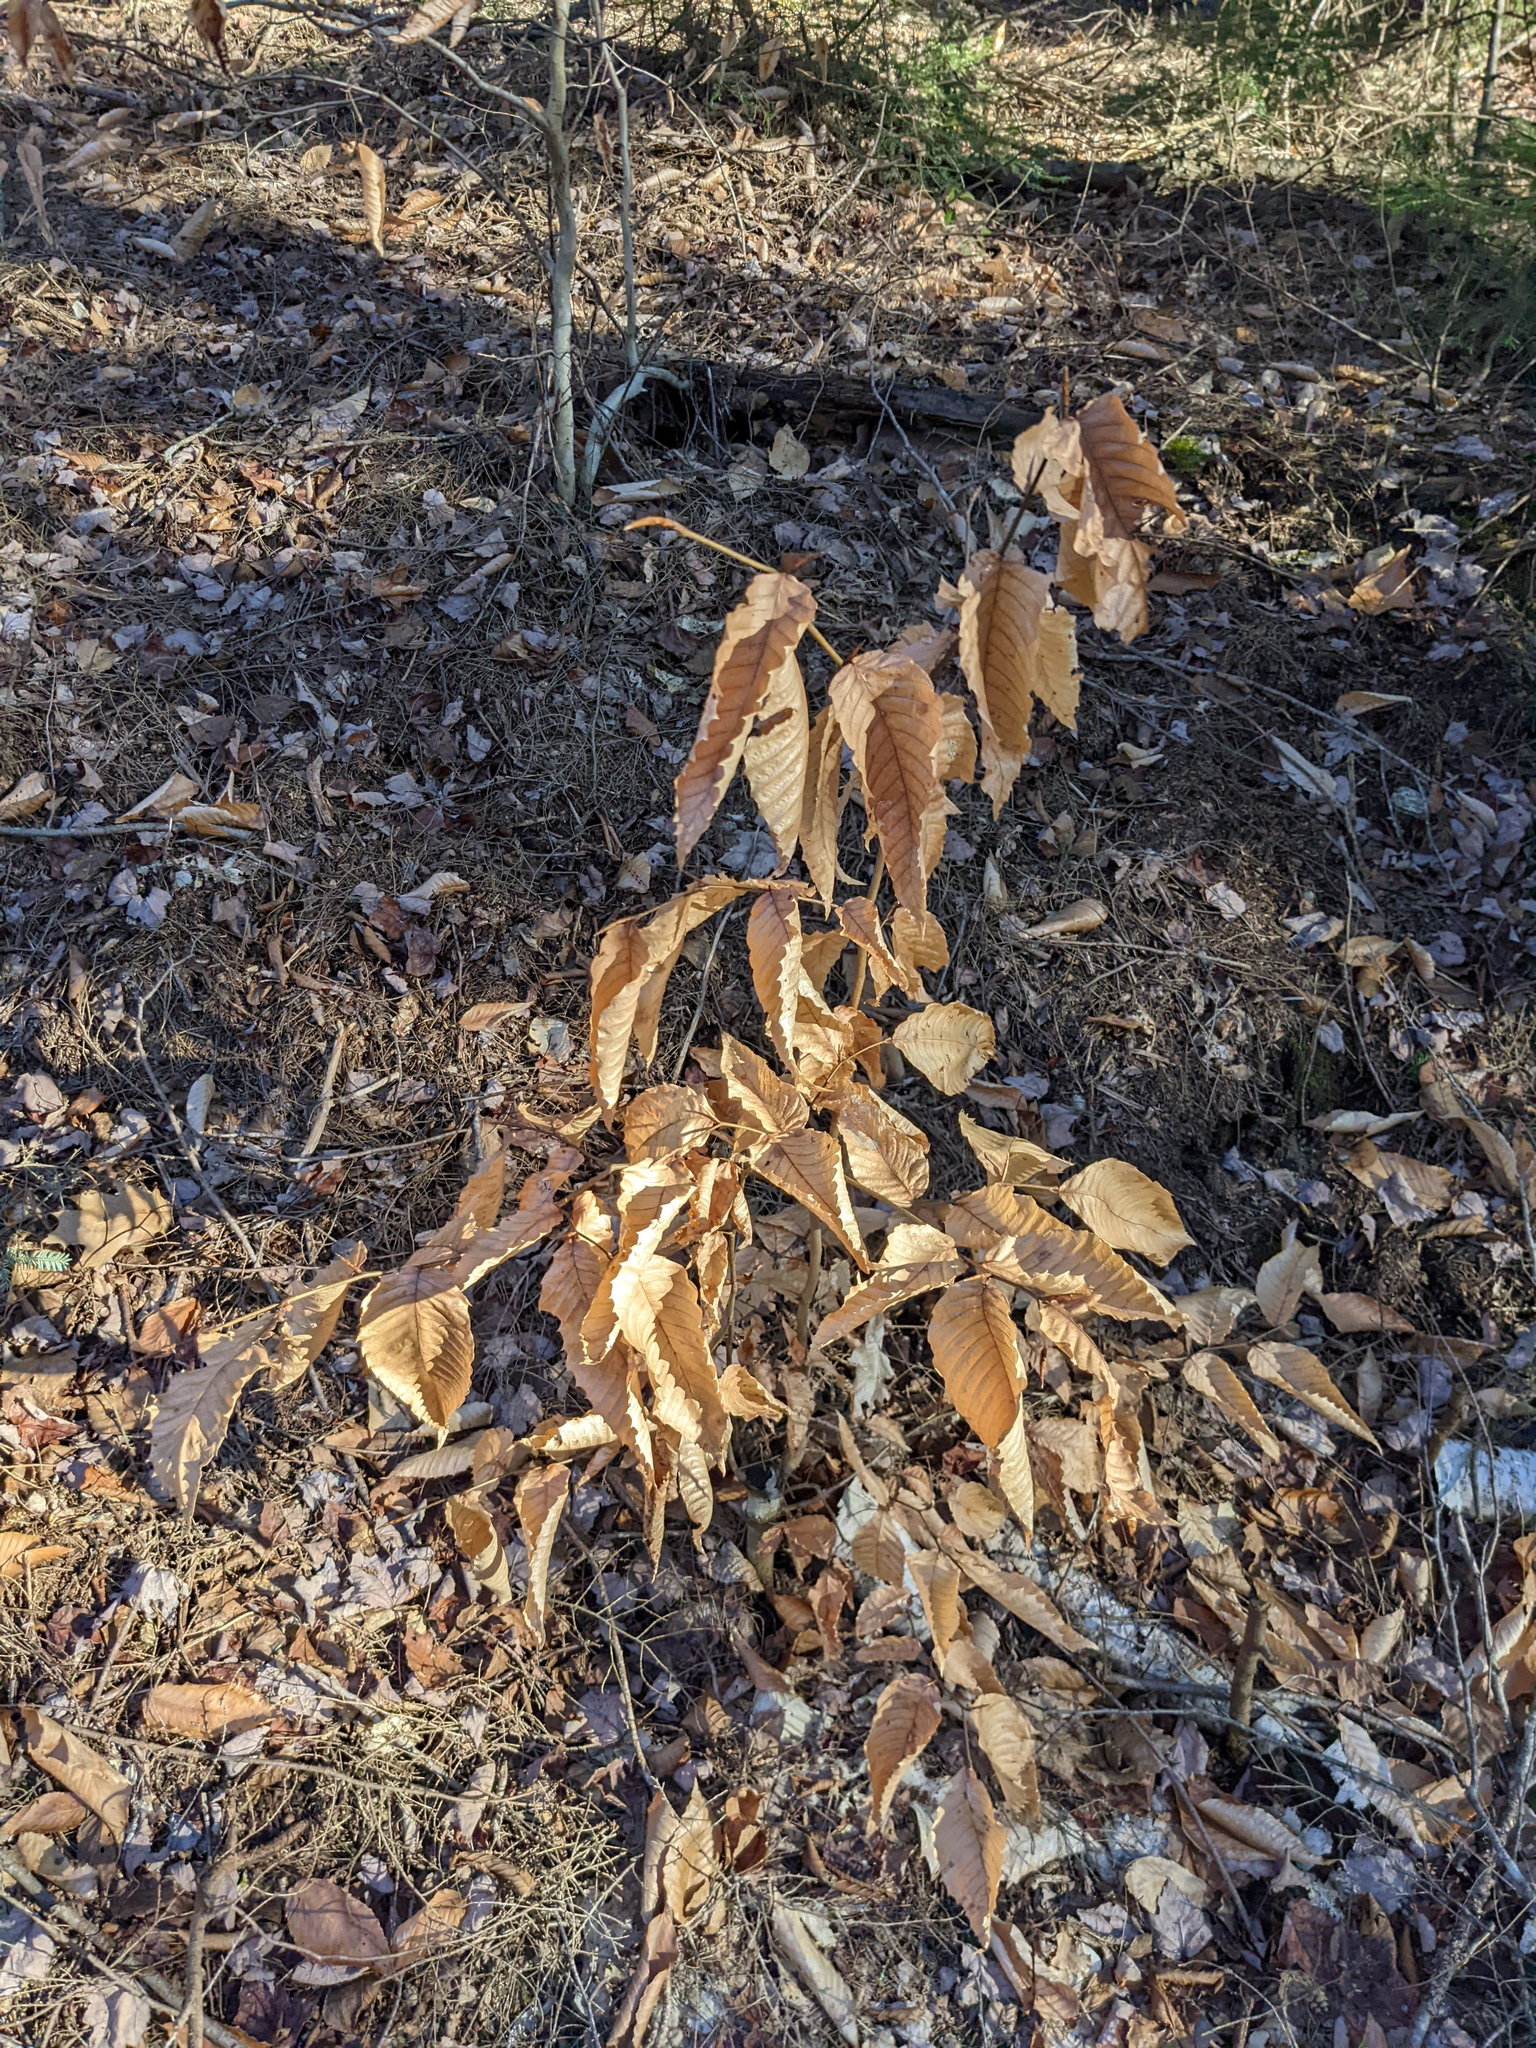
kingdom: Plantae
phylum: Tracheophyta
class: Magnoliopsida
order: Fagales
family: Fagaceae
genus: Fagus
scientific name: Fagus grandifolia
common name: American beech
